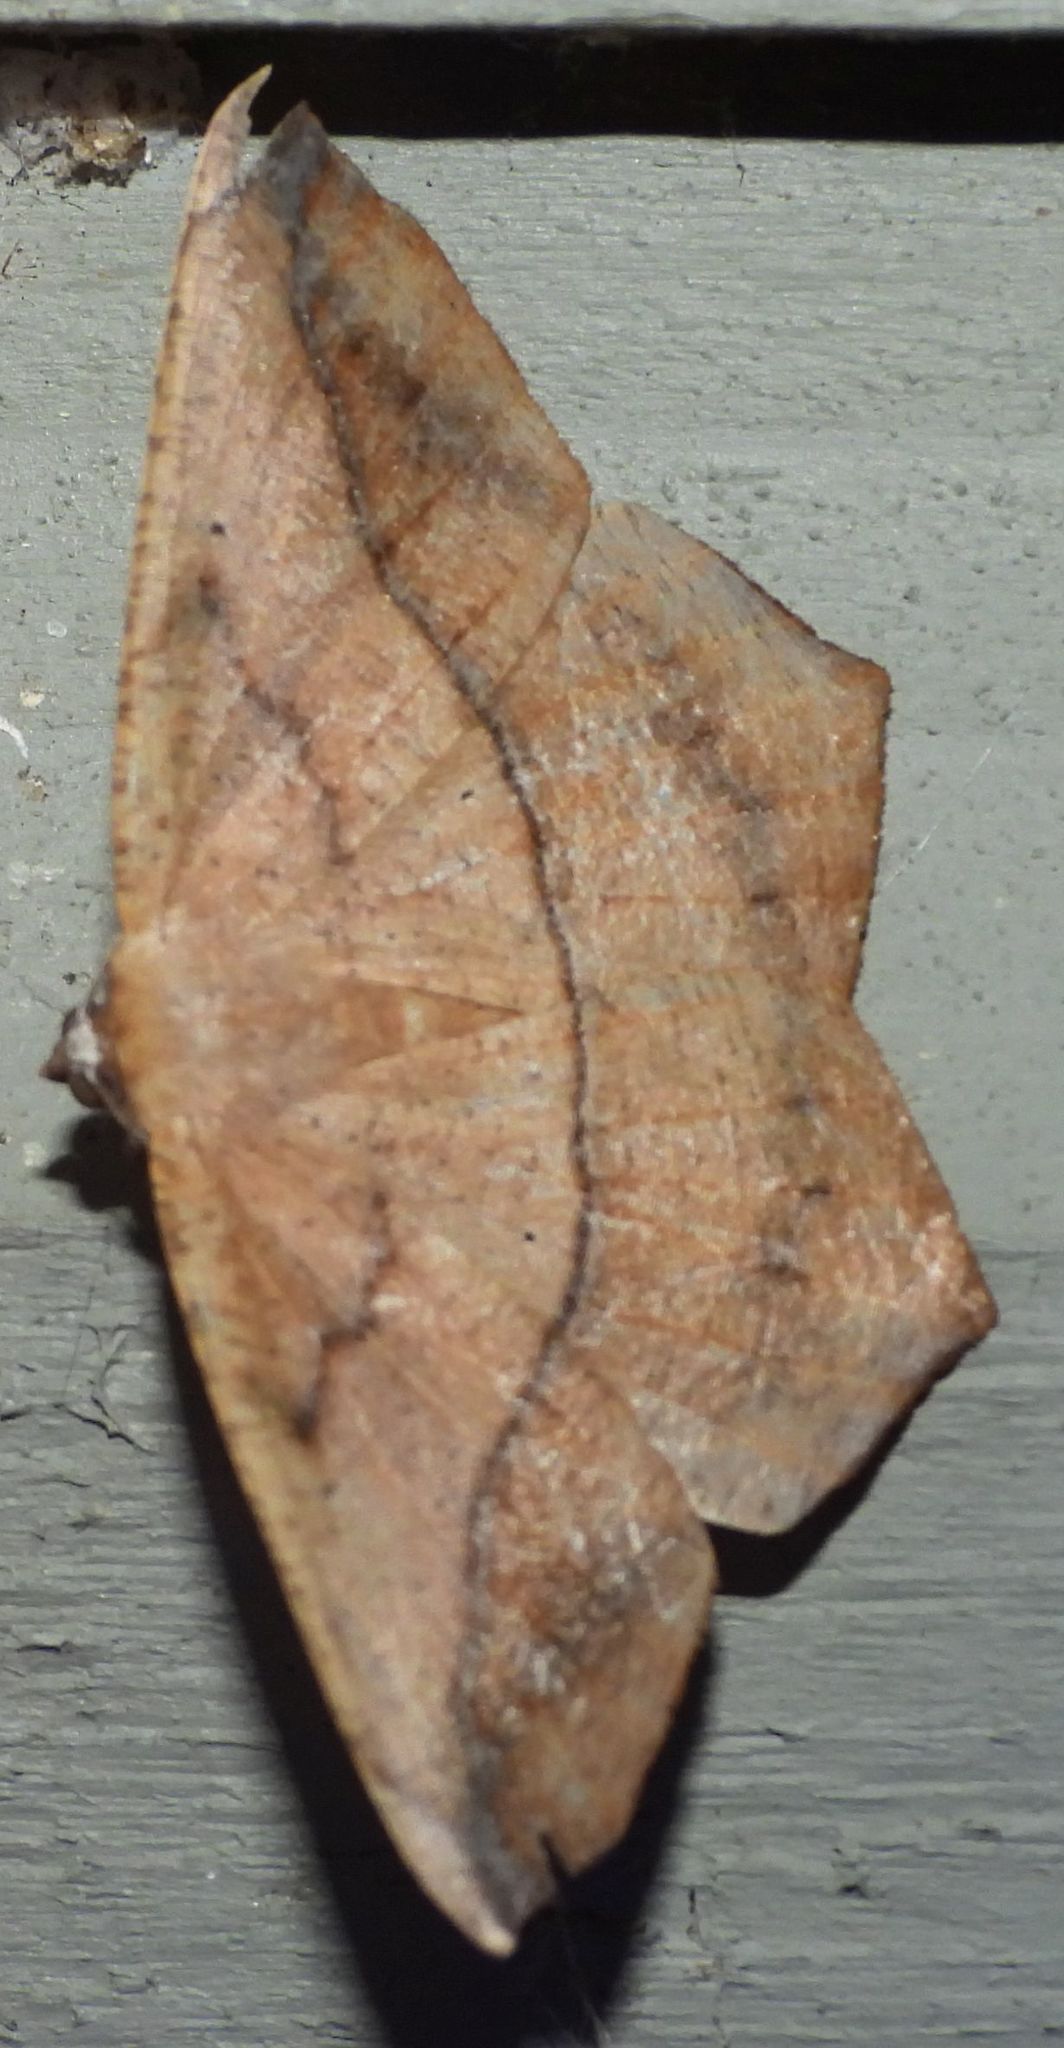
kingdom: Animalia
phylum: Arthropoda
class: Insecta
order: Lepidoptera
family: Geometridae
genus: Prochoerodes
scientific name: Prochoerodes lineola
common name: Large maple spanworm
